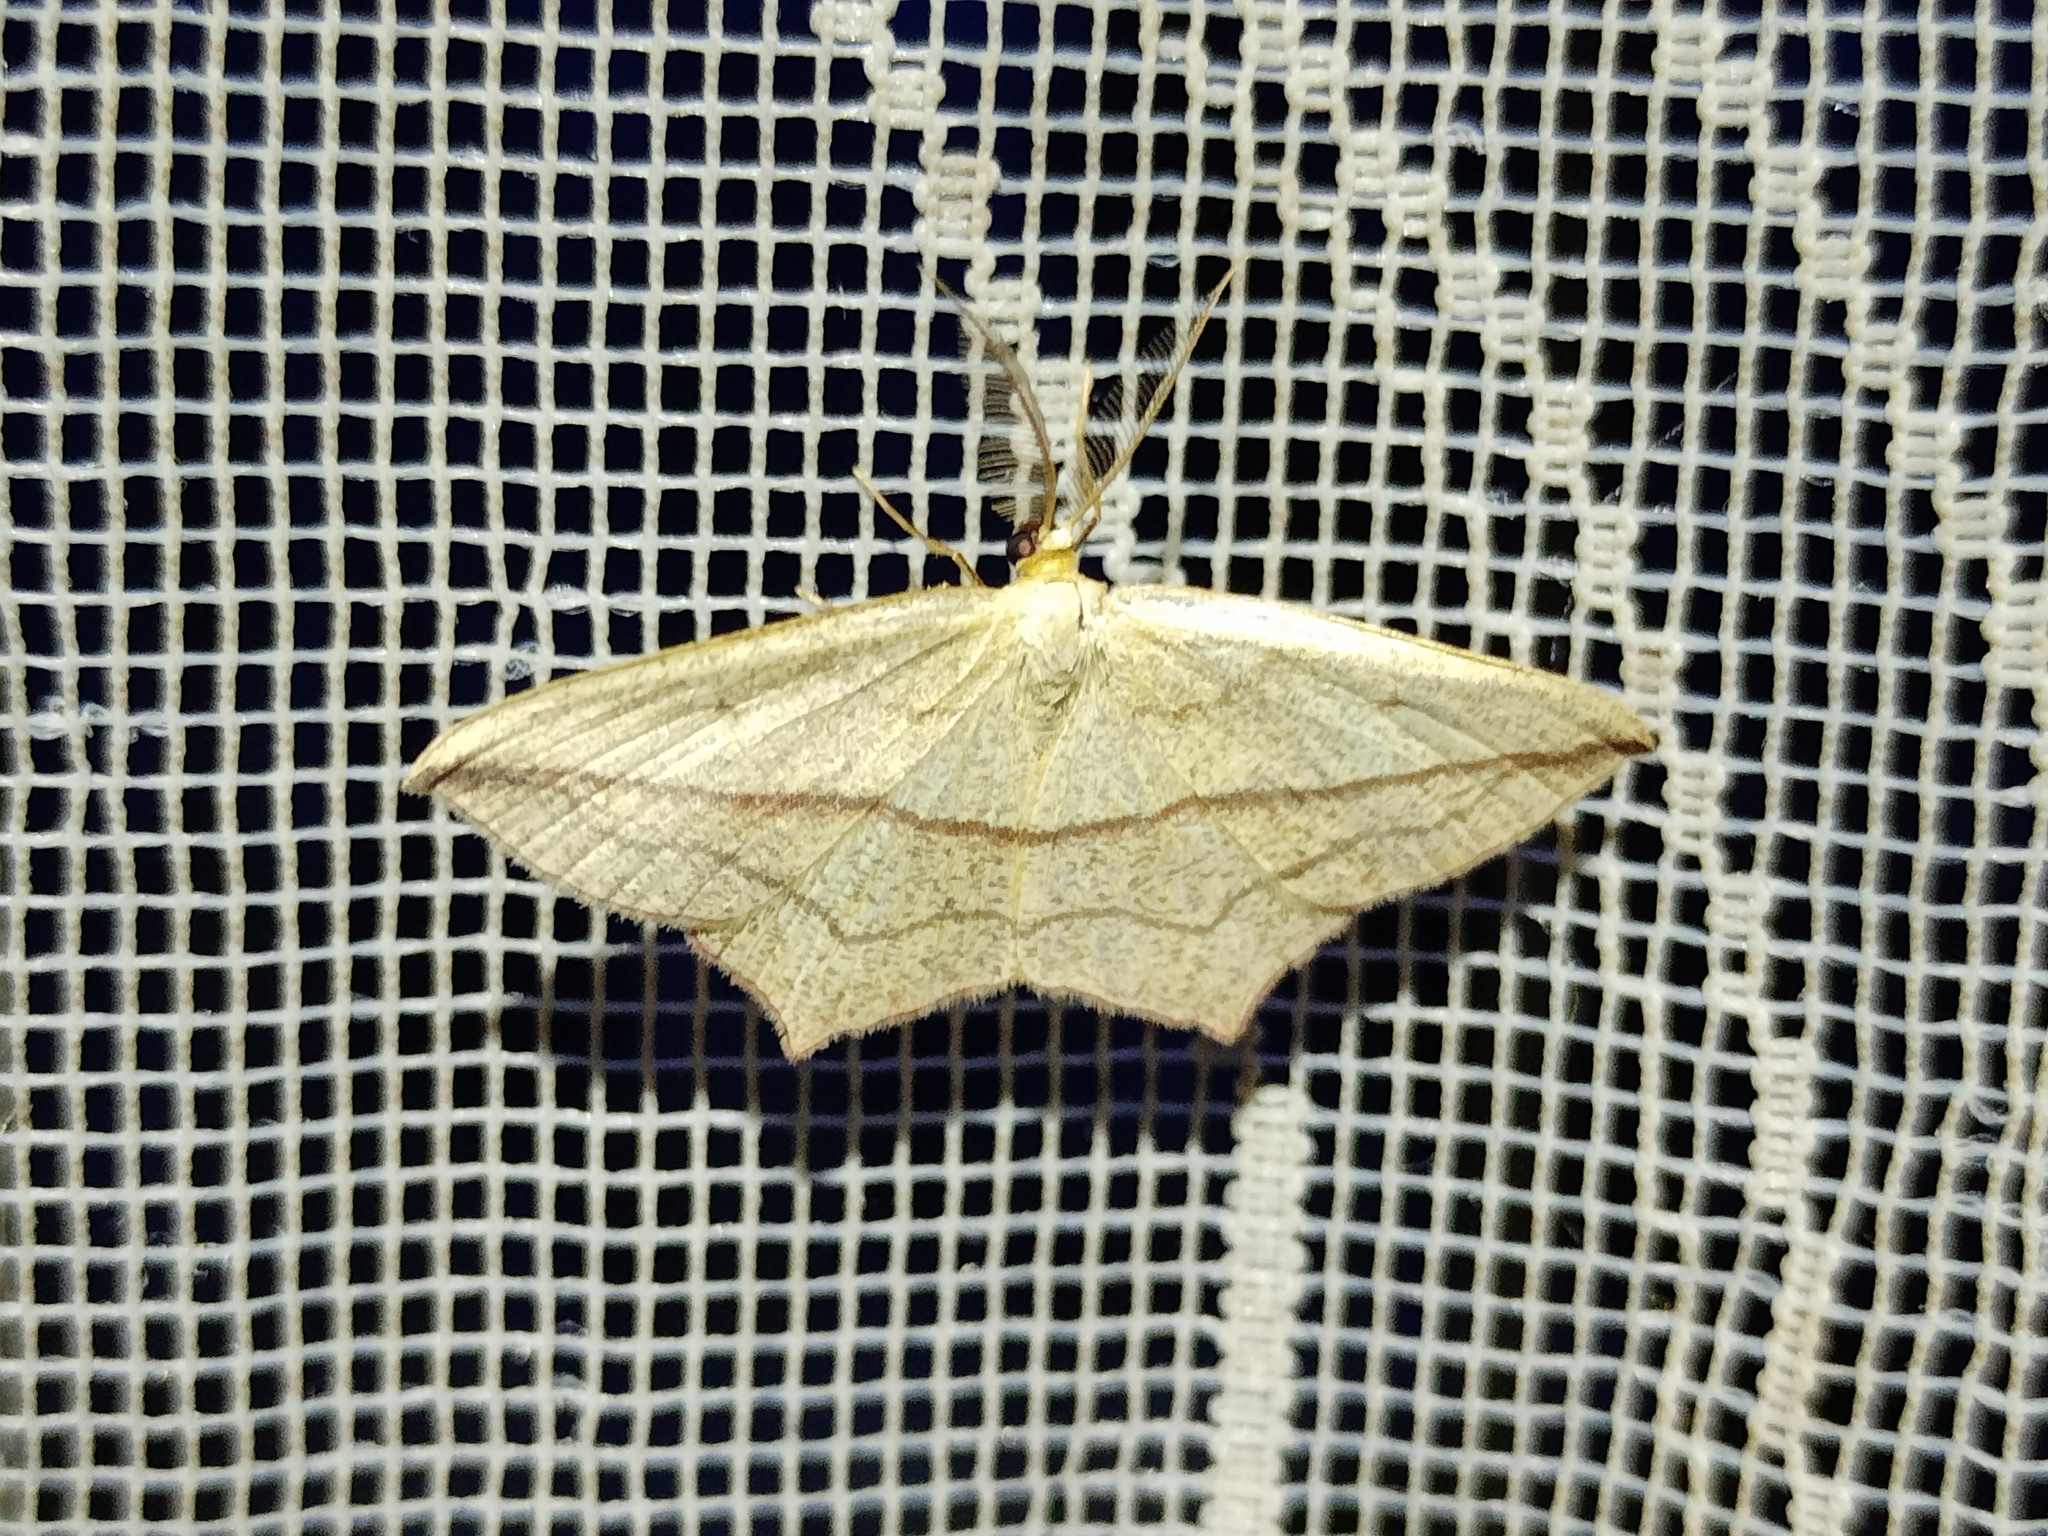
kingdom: Animalia
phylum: Arthropoda
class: Insecta
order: Lepidoptera
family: Geometridae
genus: Timandra
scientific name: Timandra comae
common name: Blood-vein
